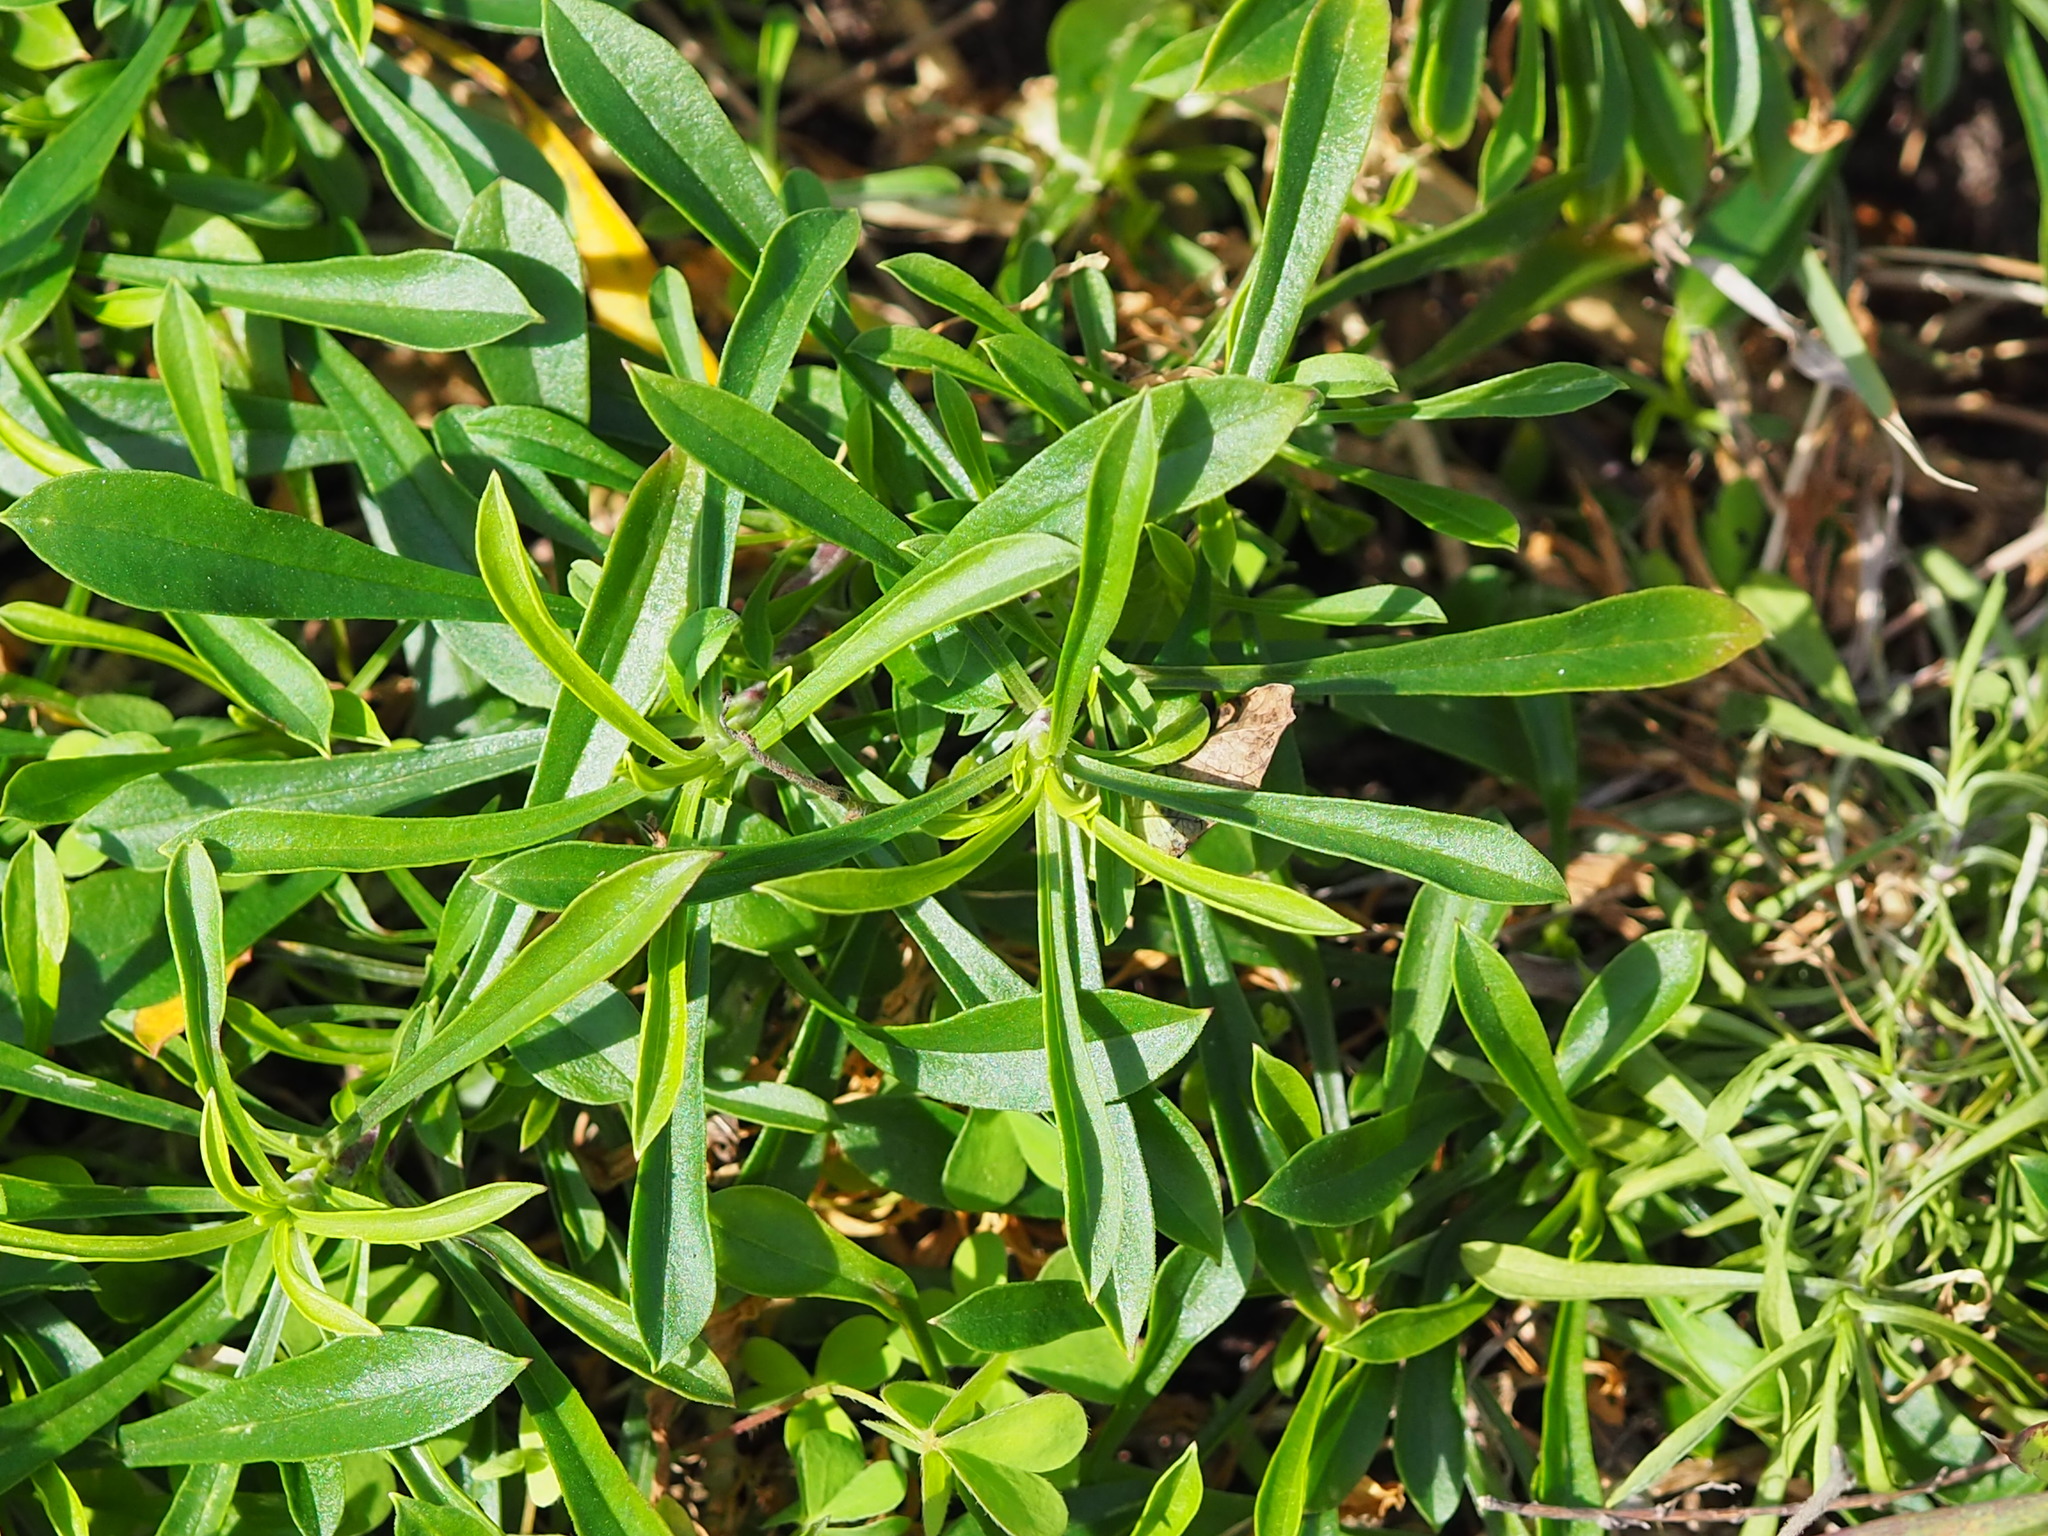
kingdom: Plantae
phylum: Tracheophyta
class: Magnoliopsida
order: Caryophyllales
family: Caryophyllaceae
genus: Silene
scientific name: Silene fissipetala
